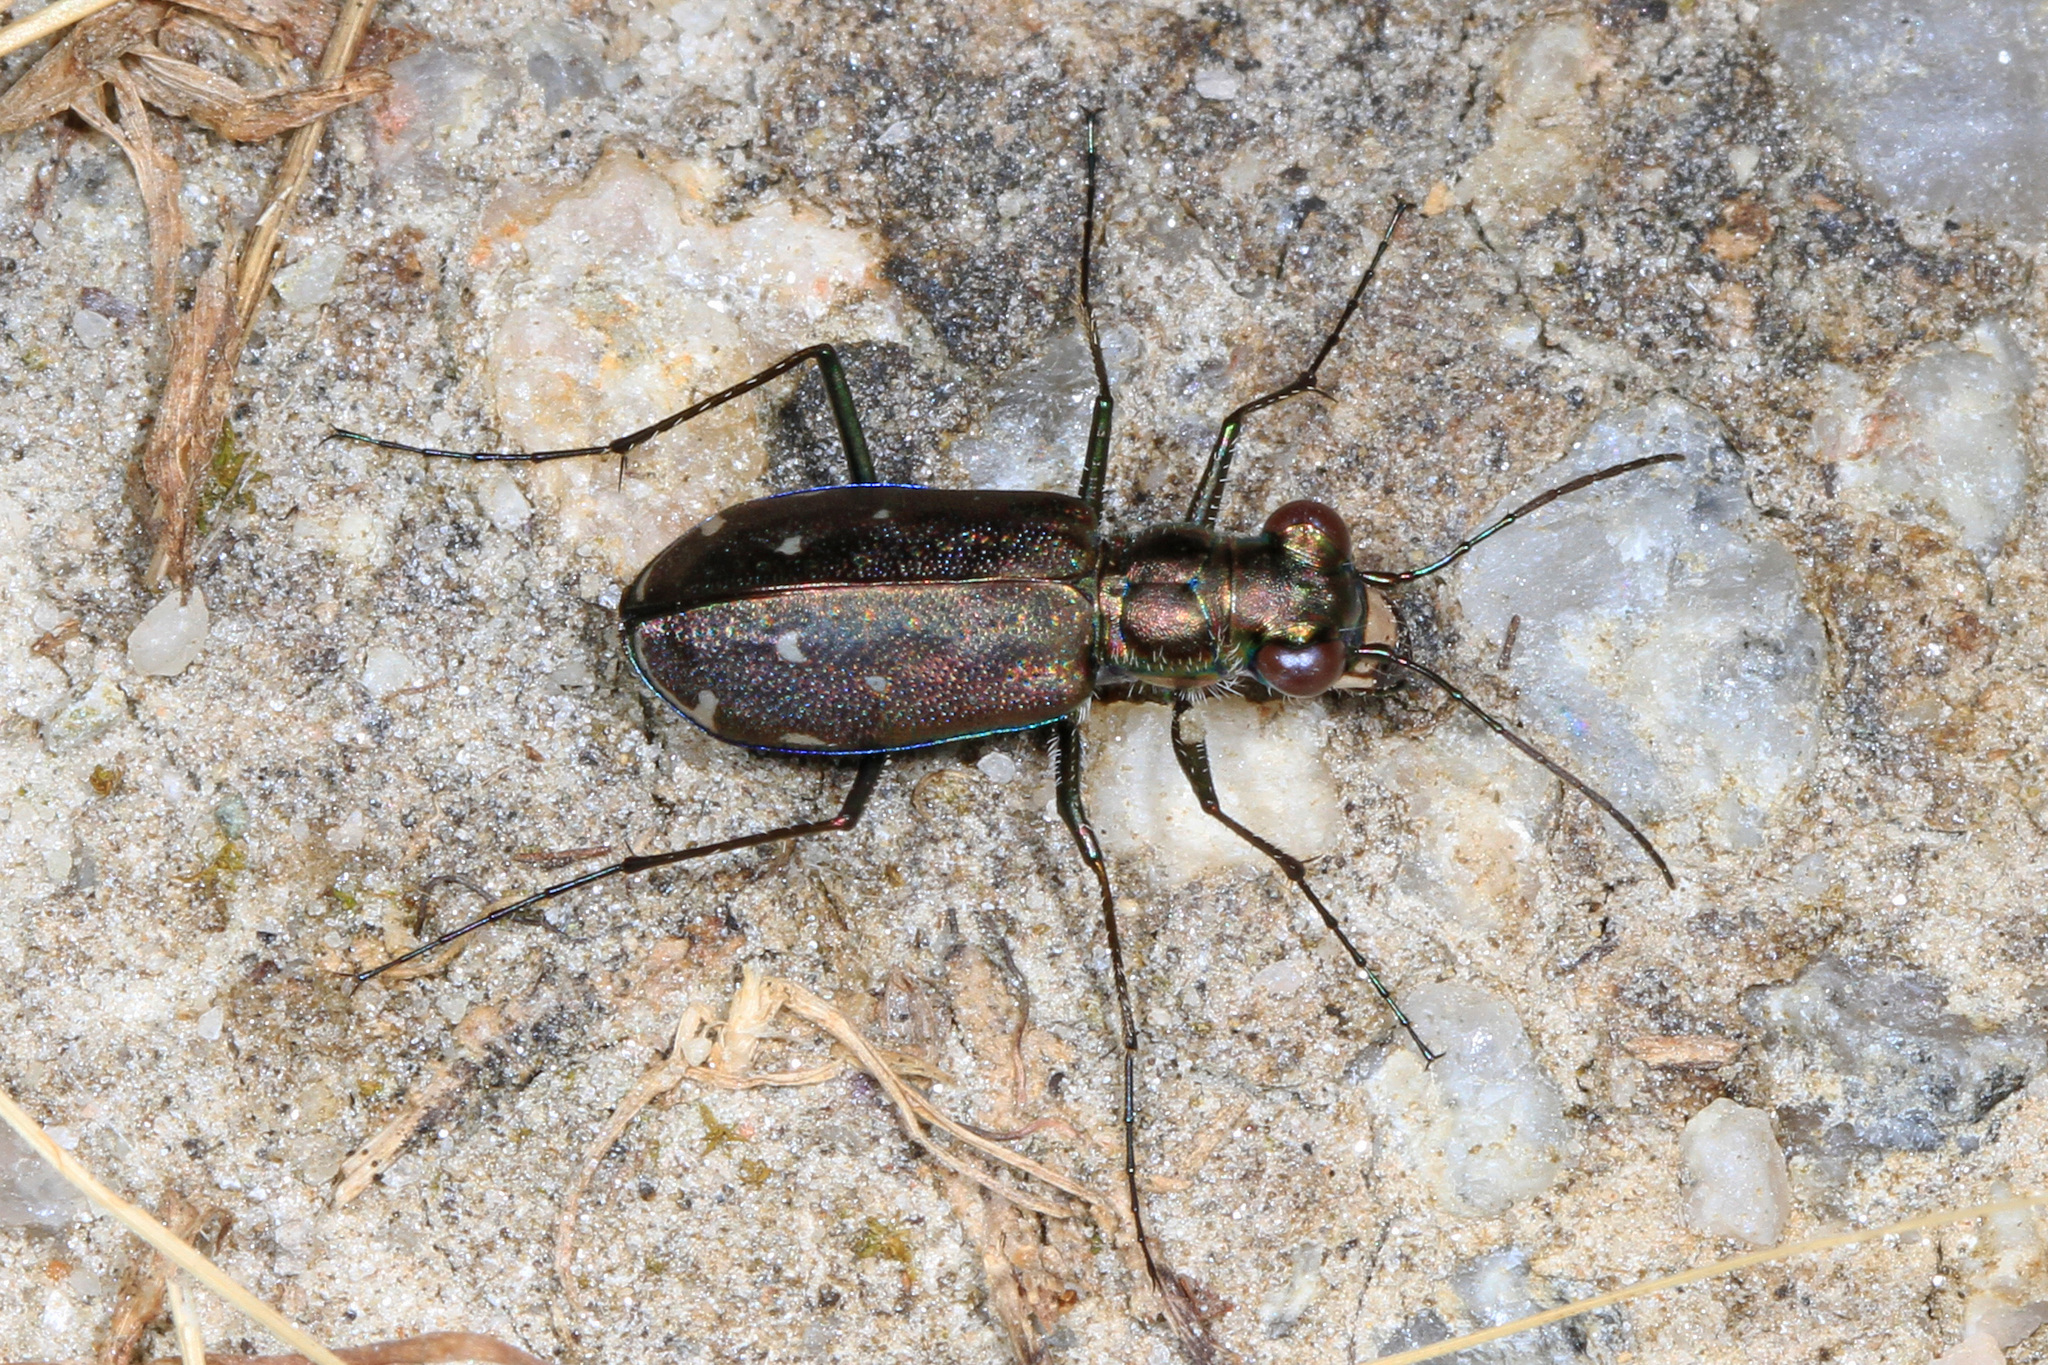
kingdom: Animalia
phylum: Arthropoda
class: Insecta
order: Coleoptera
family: Carabidae
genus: Cicindela
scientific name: Cicindela punctulata
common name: Punctured tiger beetle
